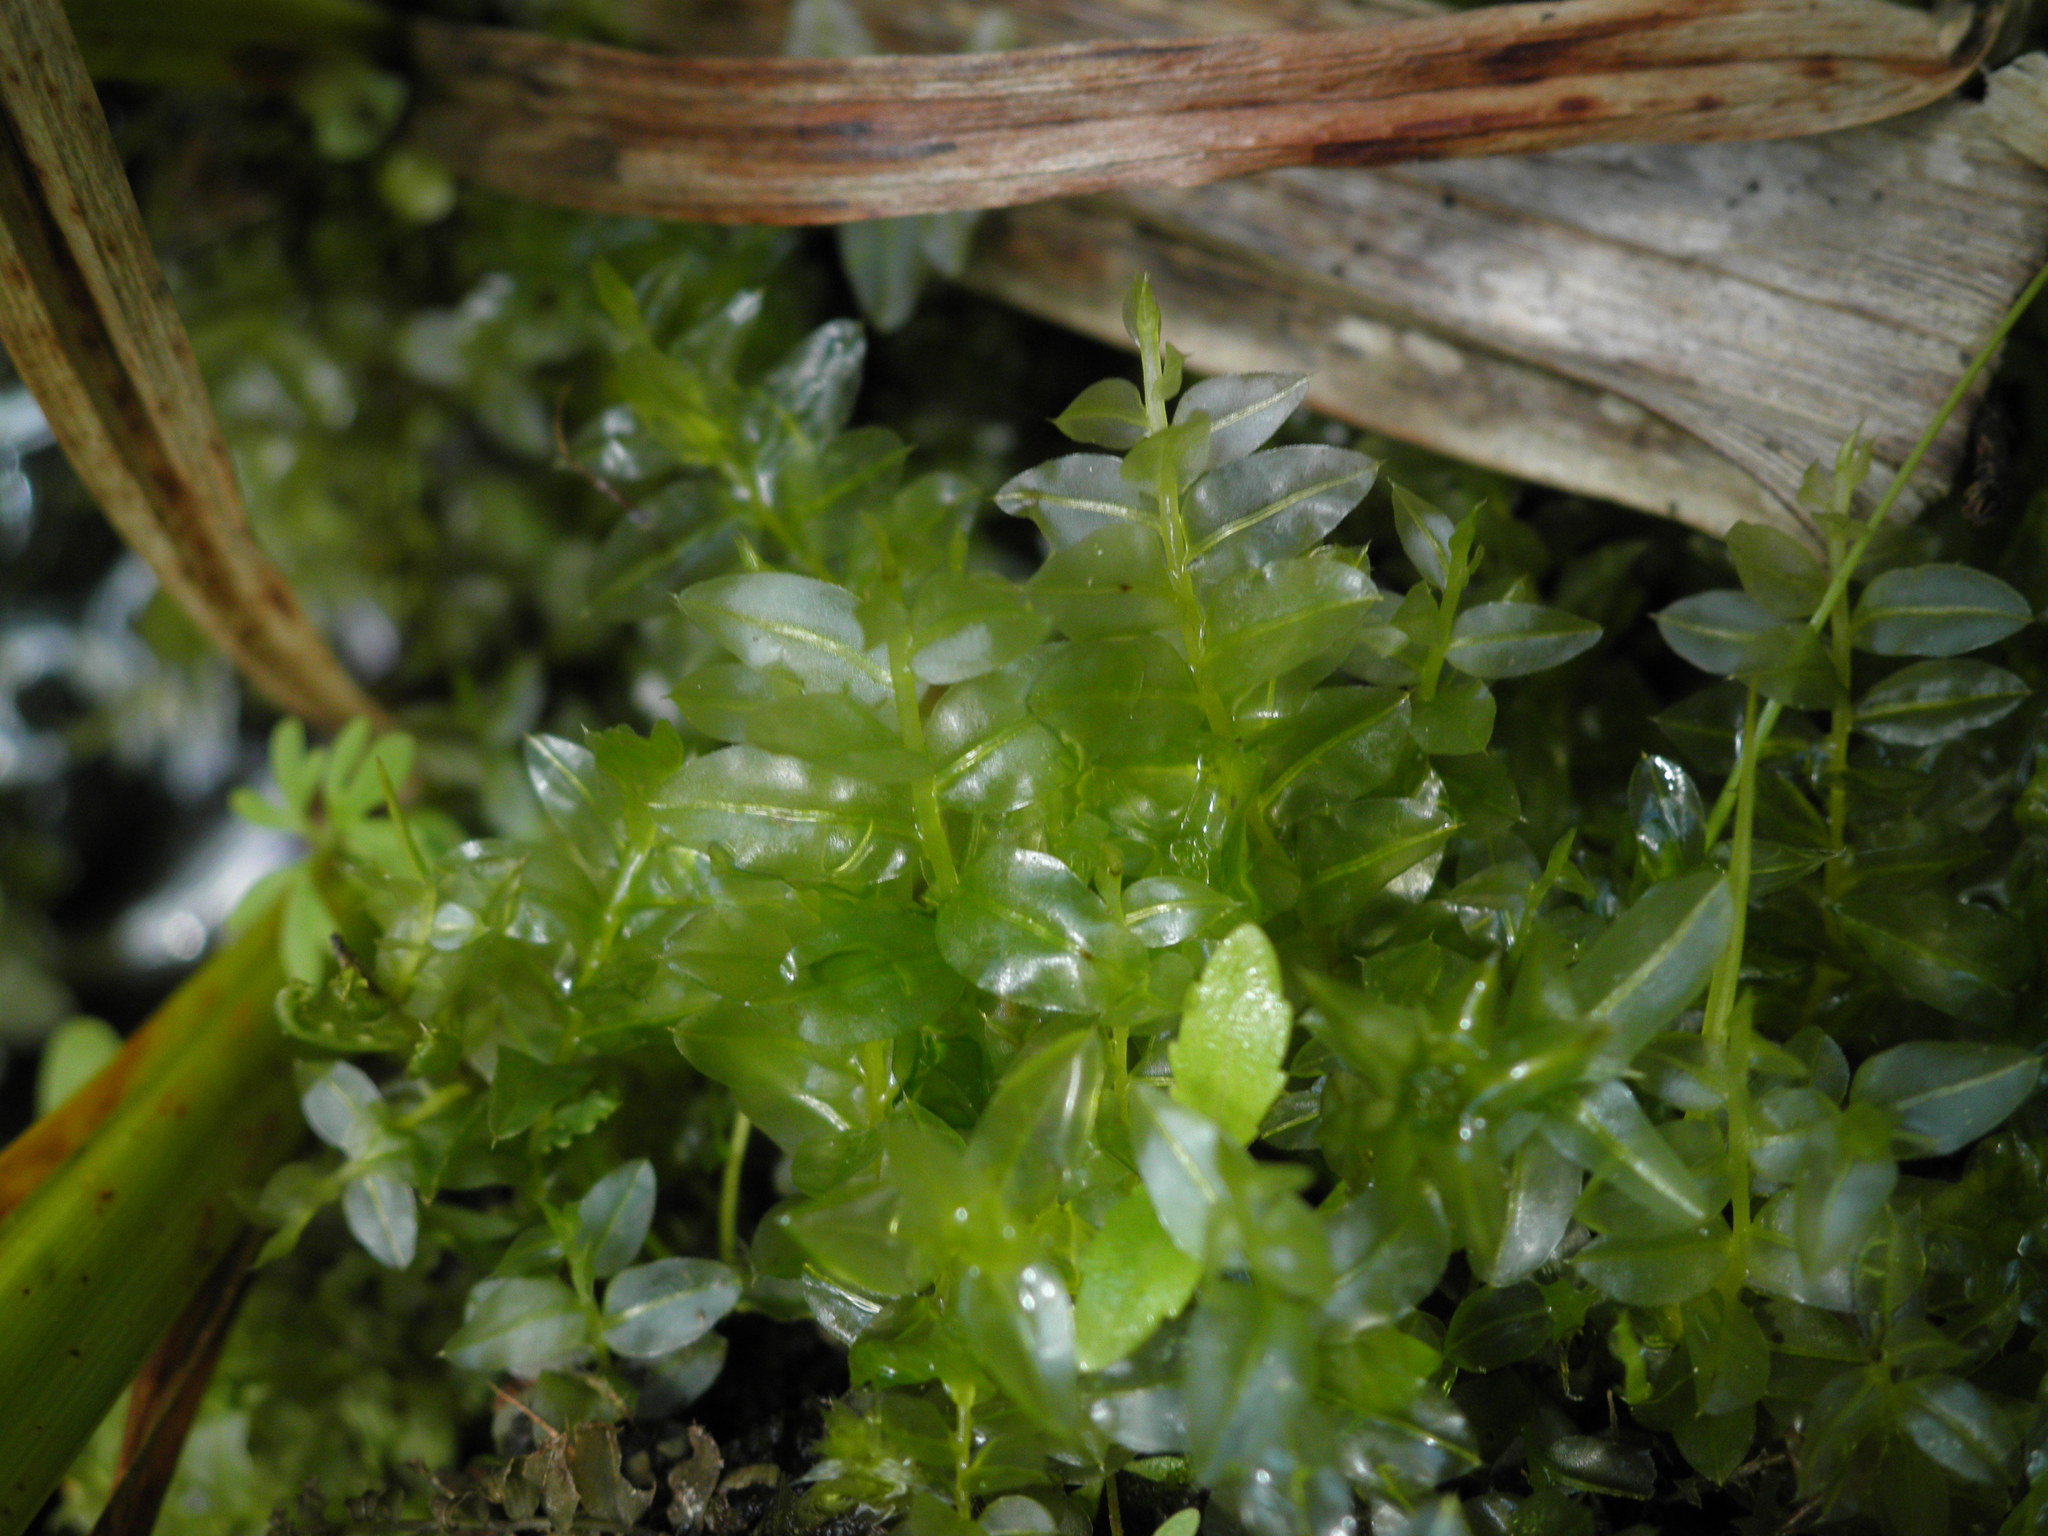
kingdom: Plantae
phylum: Bryophyta
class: Bryopsida
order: Bryales
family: Mniaceae
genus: Plagiomnium
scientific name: Plagiomnium cuspidatum
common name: Woodsy leafy moss
